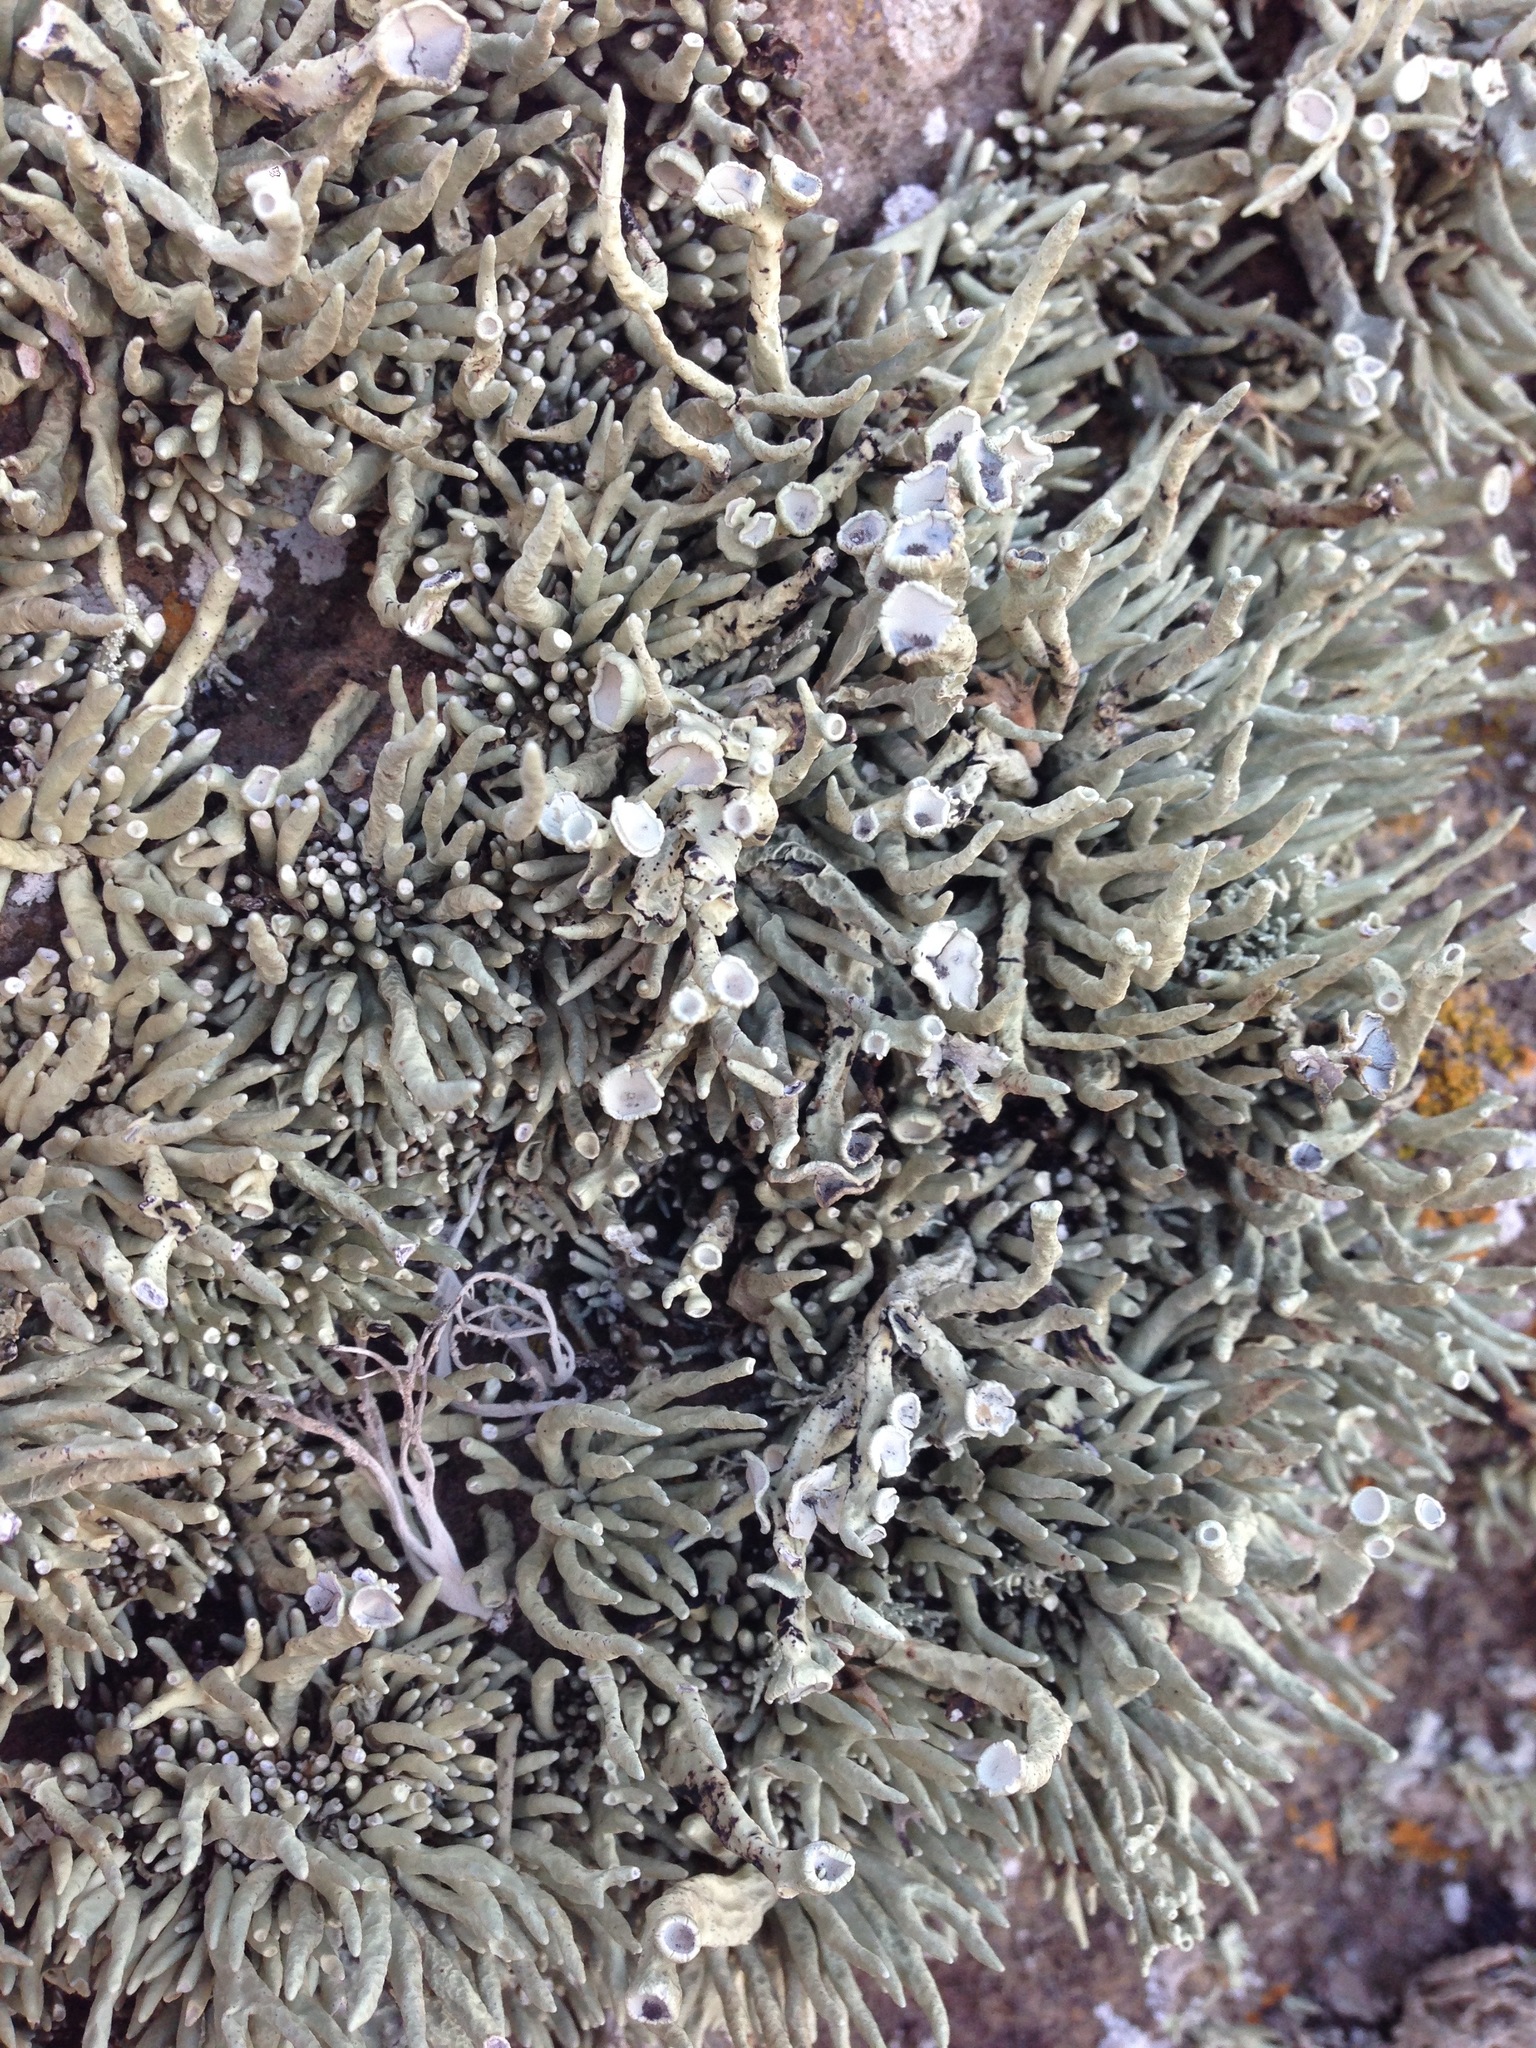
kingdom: Fungi
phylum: Ascomycota
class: Lecanoromycetes
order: Lecanorales
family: Ramalinaceae
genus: Niebla
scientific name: Niebla combeoides
